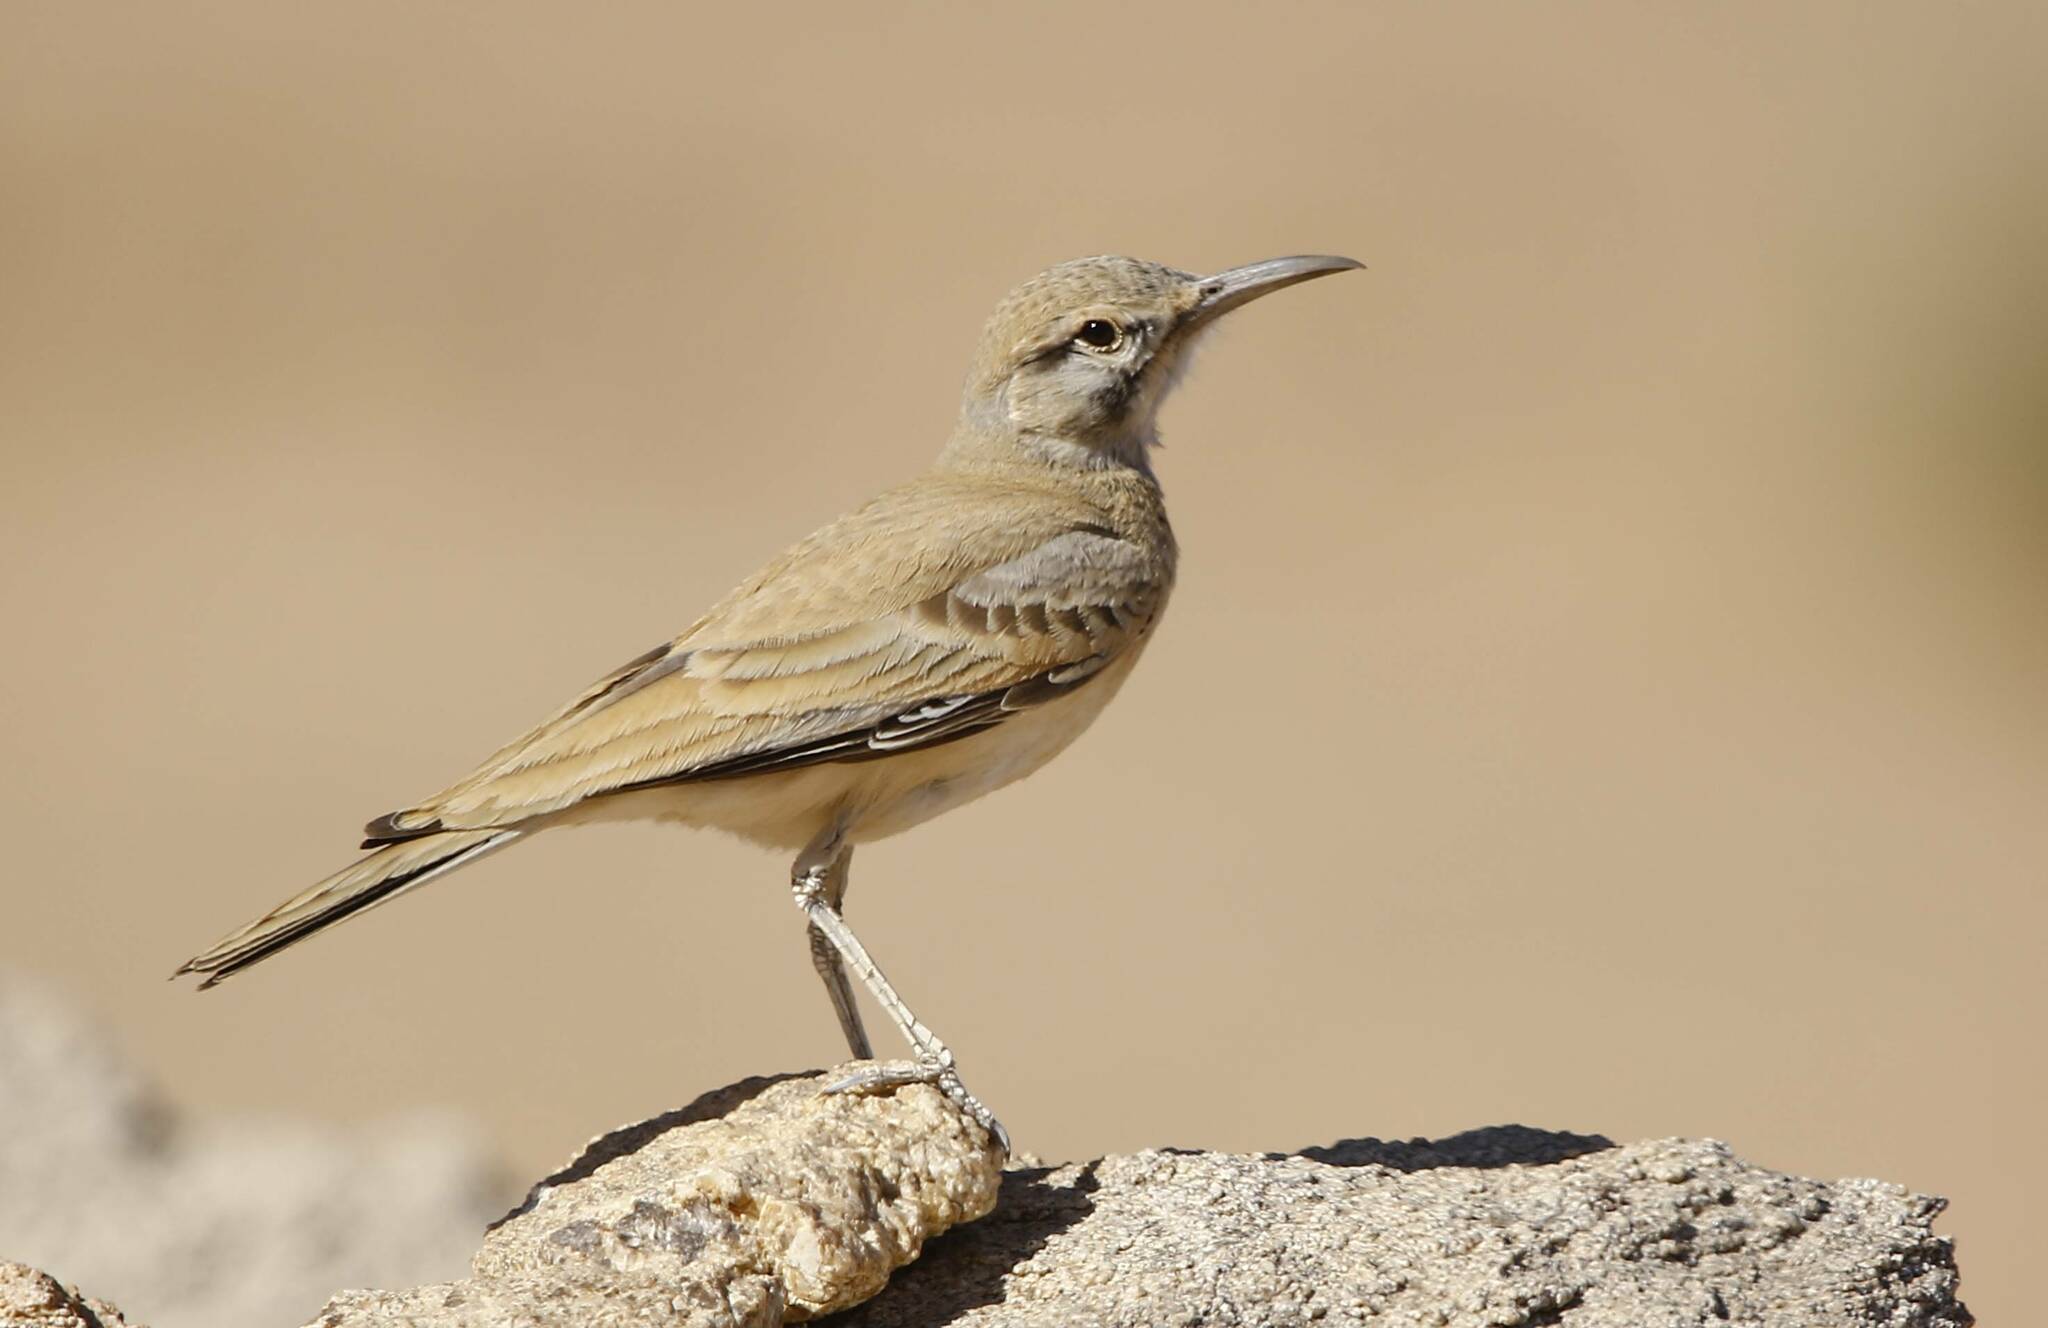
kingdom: Animalia
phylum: Chordata
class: Aves
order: Passeriformes
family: Alaudidae
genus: Alaemon
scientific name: Alaemon alaudipes
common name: Greater hoopoe-lark
